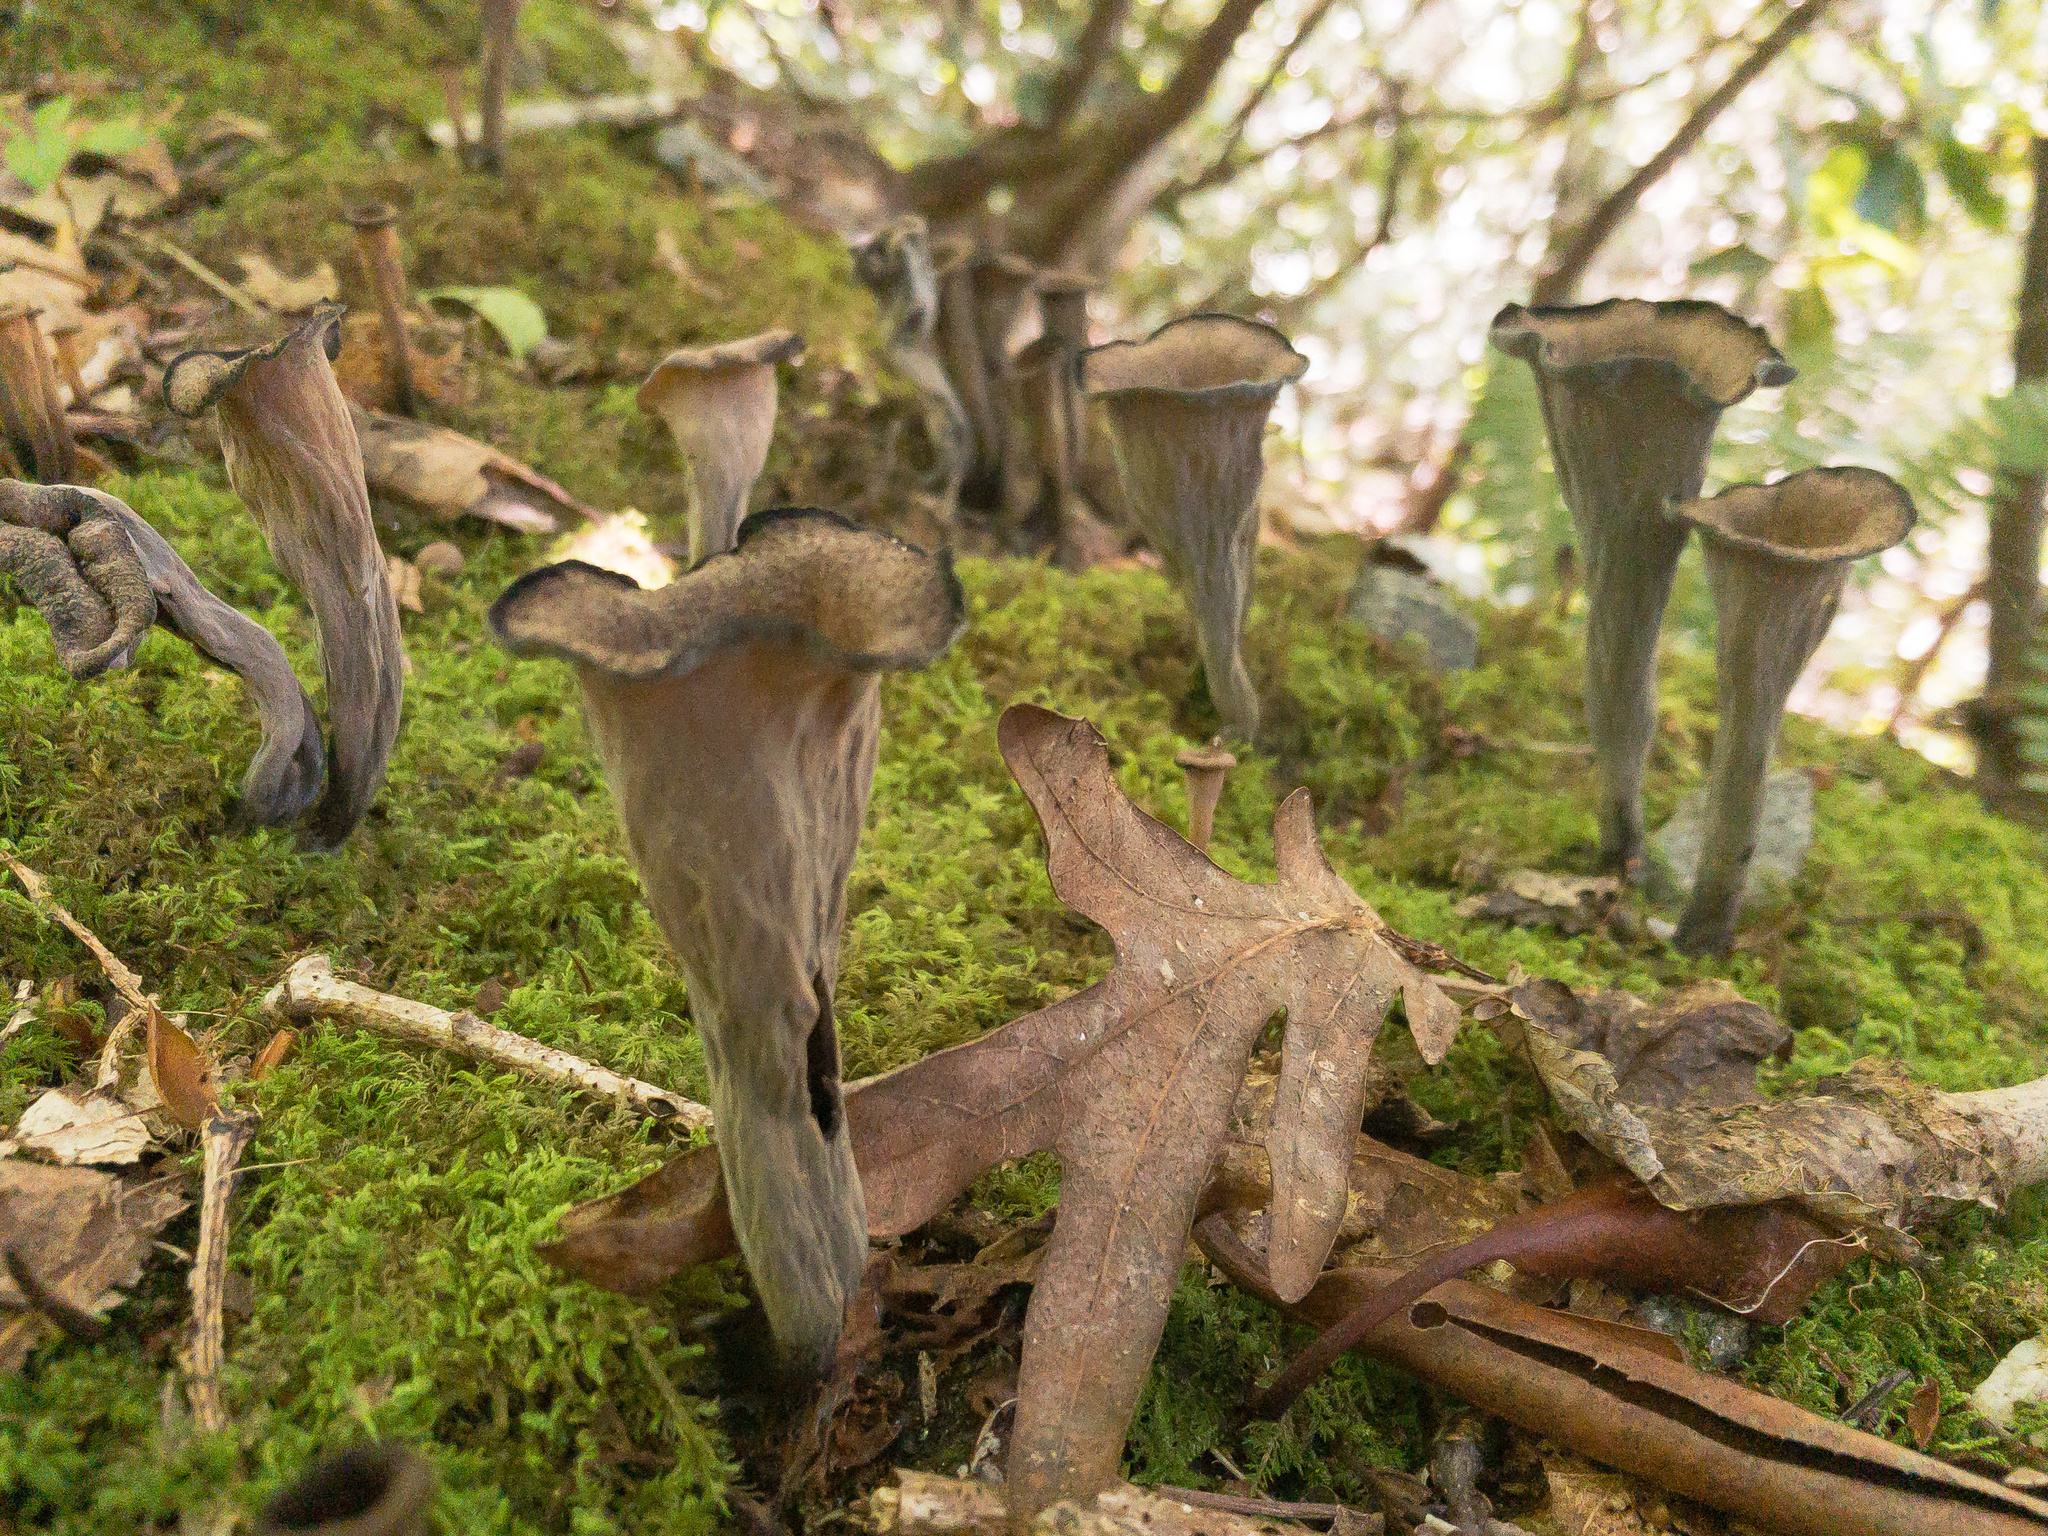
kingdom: Fungi
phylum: Basidiomycota
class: Agaricomycetes
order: Cantharellales
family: Hydnaceae
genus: Craterellus
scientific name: Craterellus cornucopioides
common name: Horn of plenty
